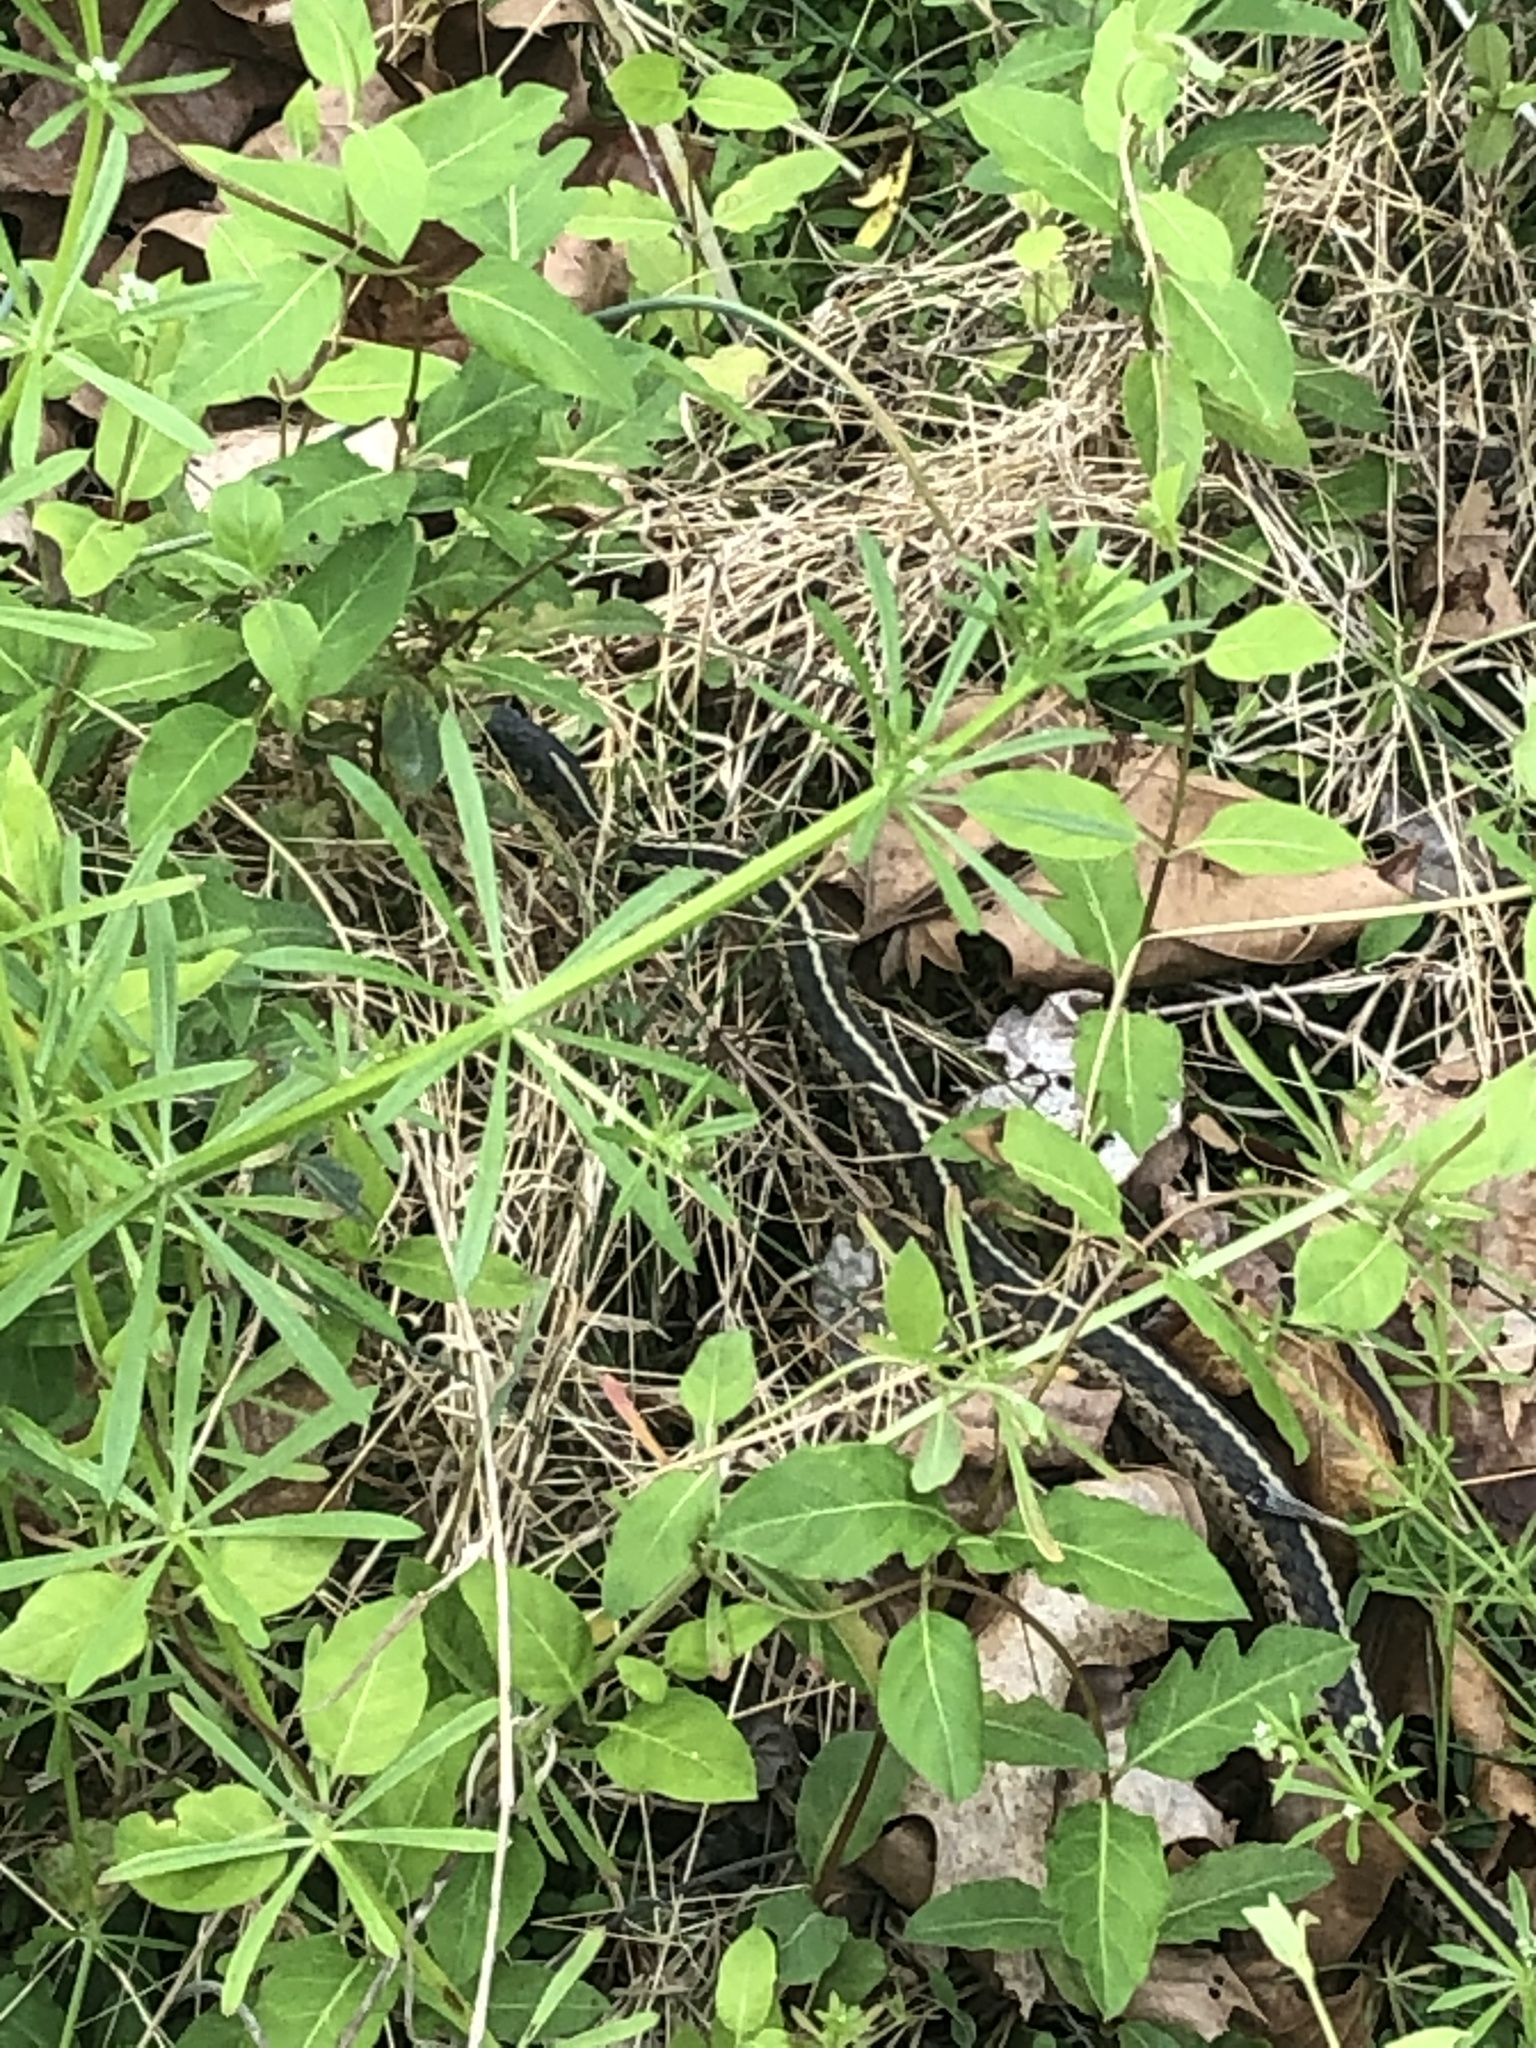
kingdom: Animalia
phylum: Chordata
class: Squamata
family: Colubridae
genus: Thamnophis
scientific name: Thamnophis sirtalis
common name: Common garter snake
